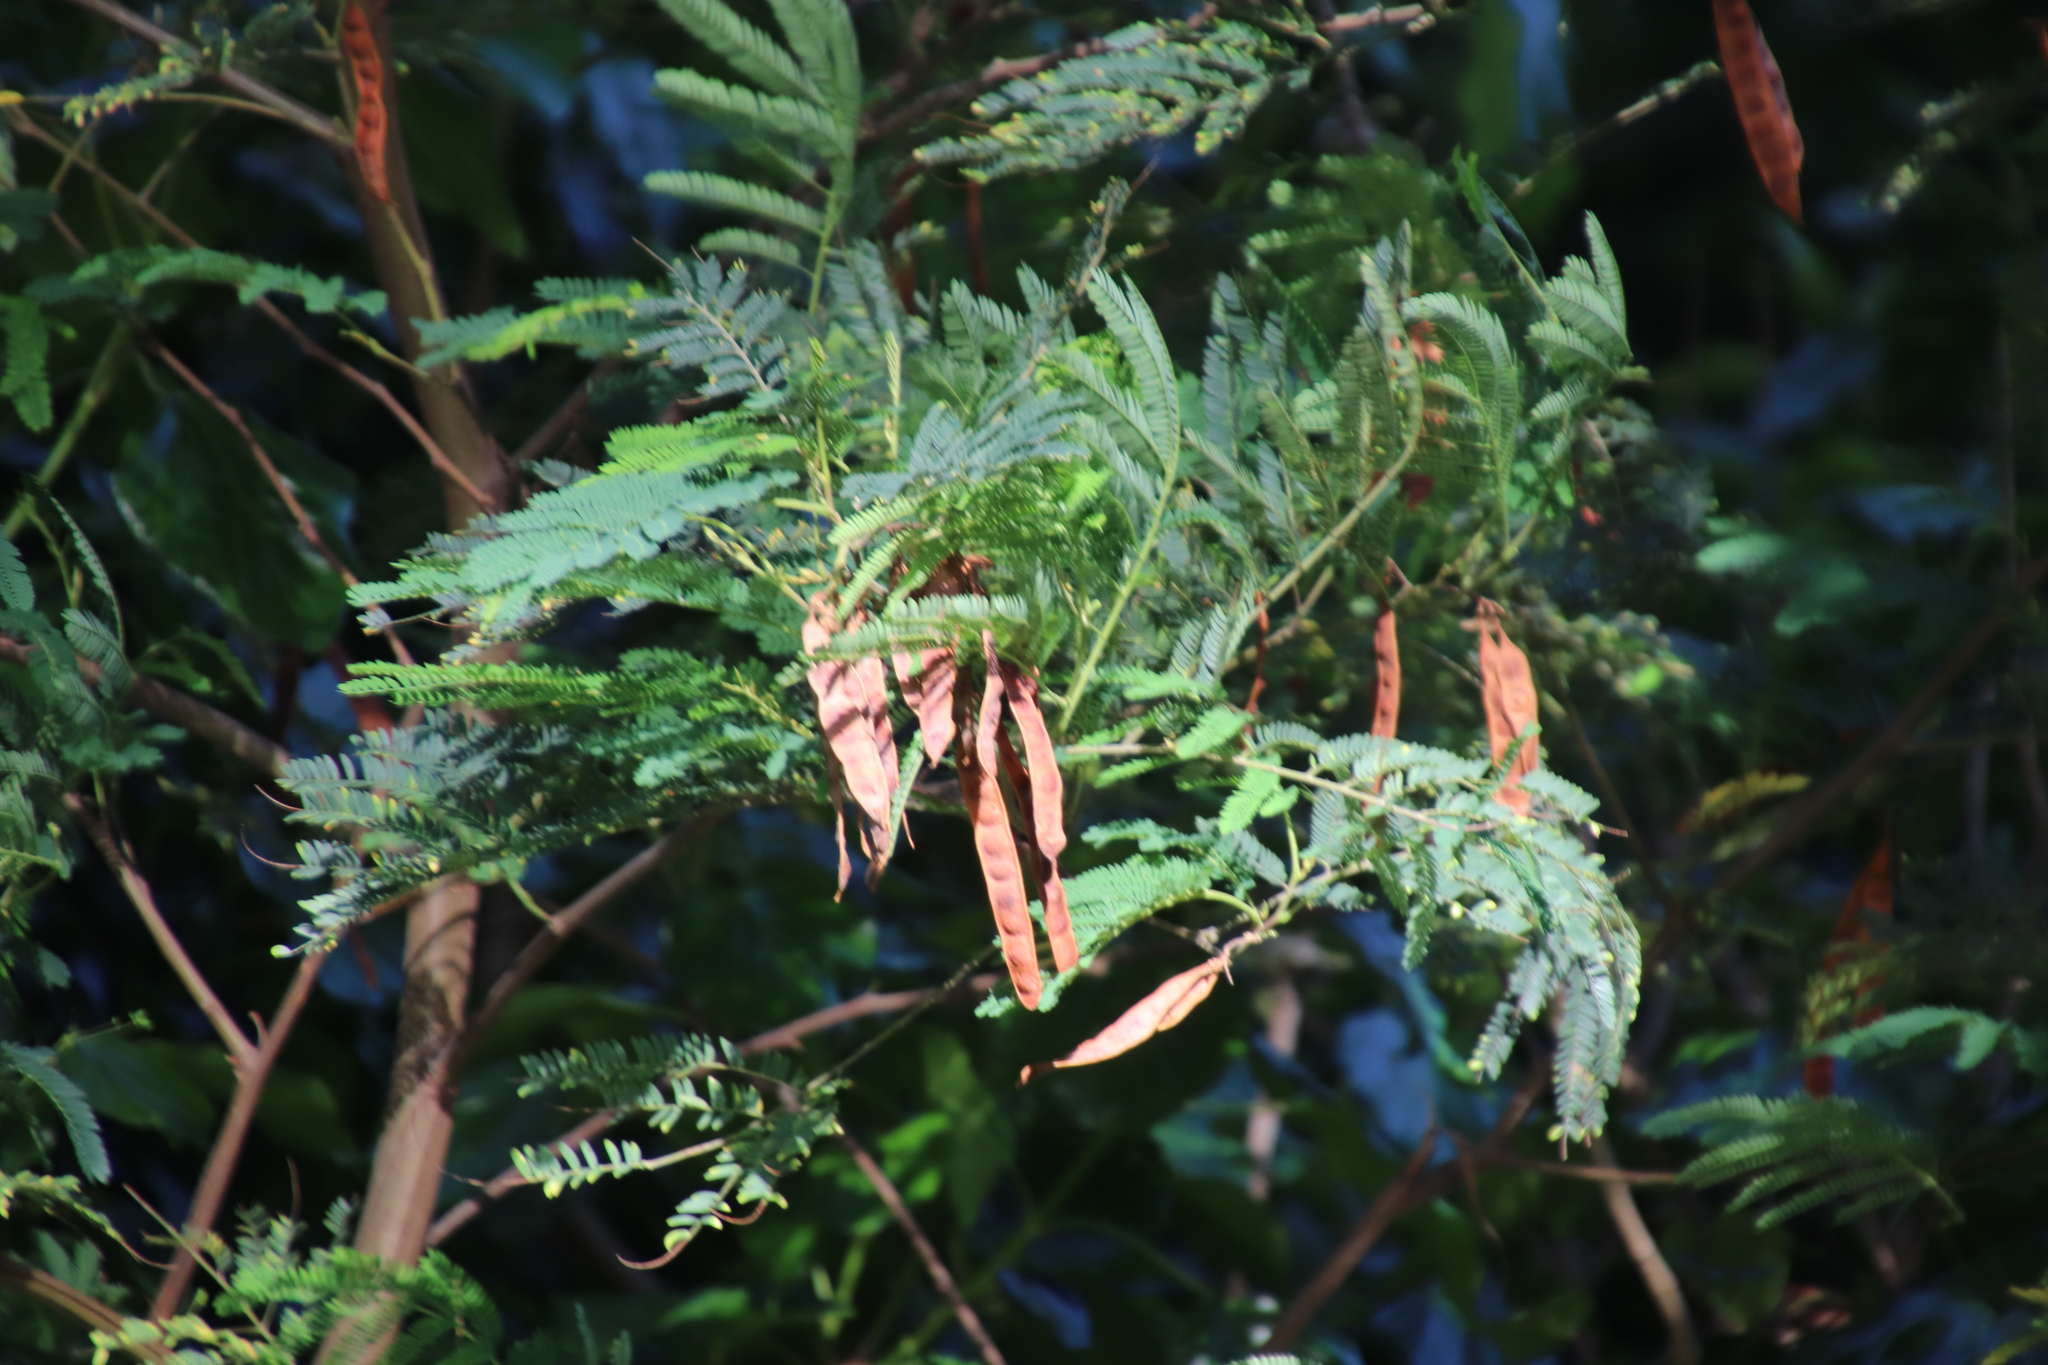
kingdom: Plantae
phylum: Tracheophyta
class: Magnoliopsida
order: Fabales
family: Fabaceae
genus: Paraserianthes
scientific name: Paraserianthes lophantha
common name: Plume albizia
